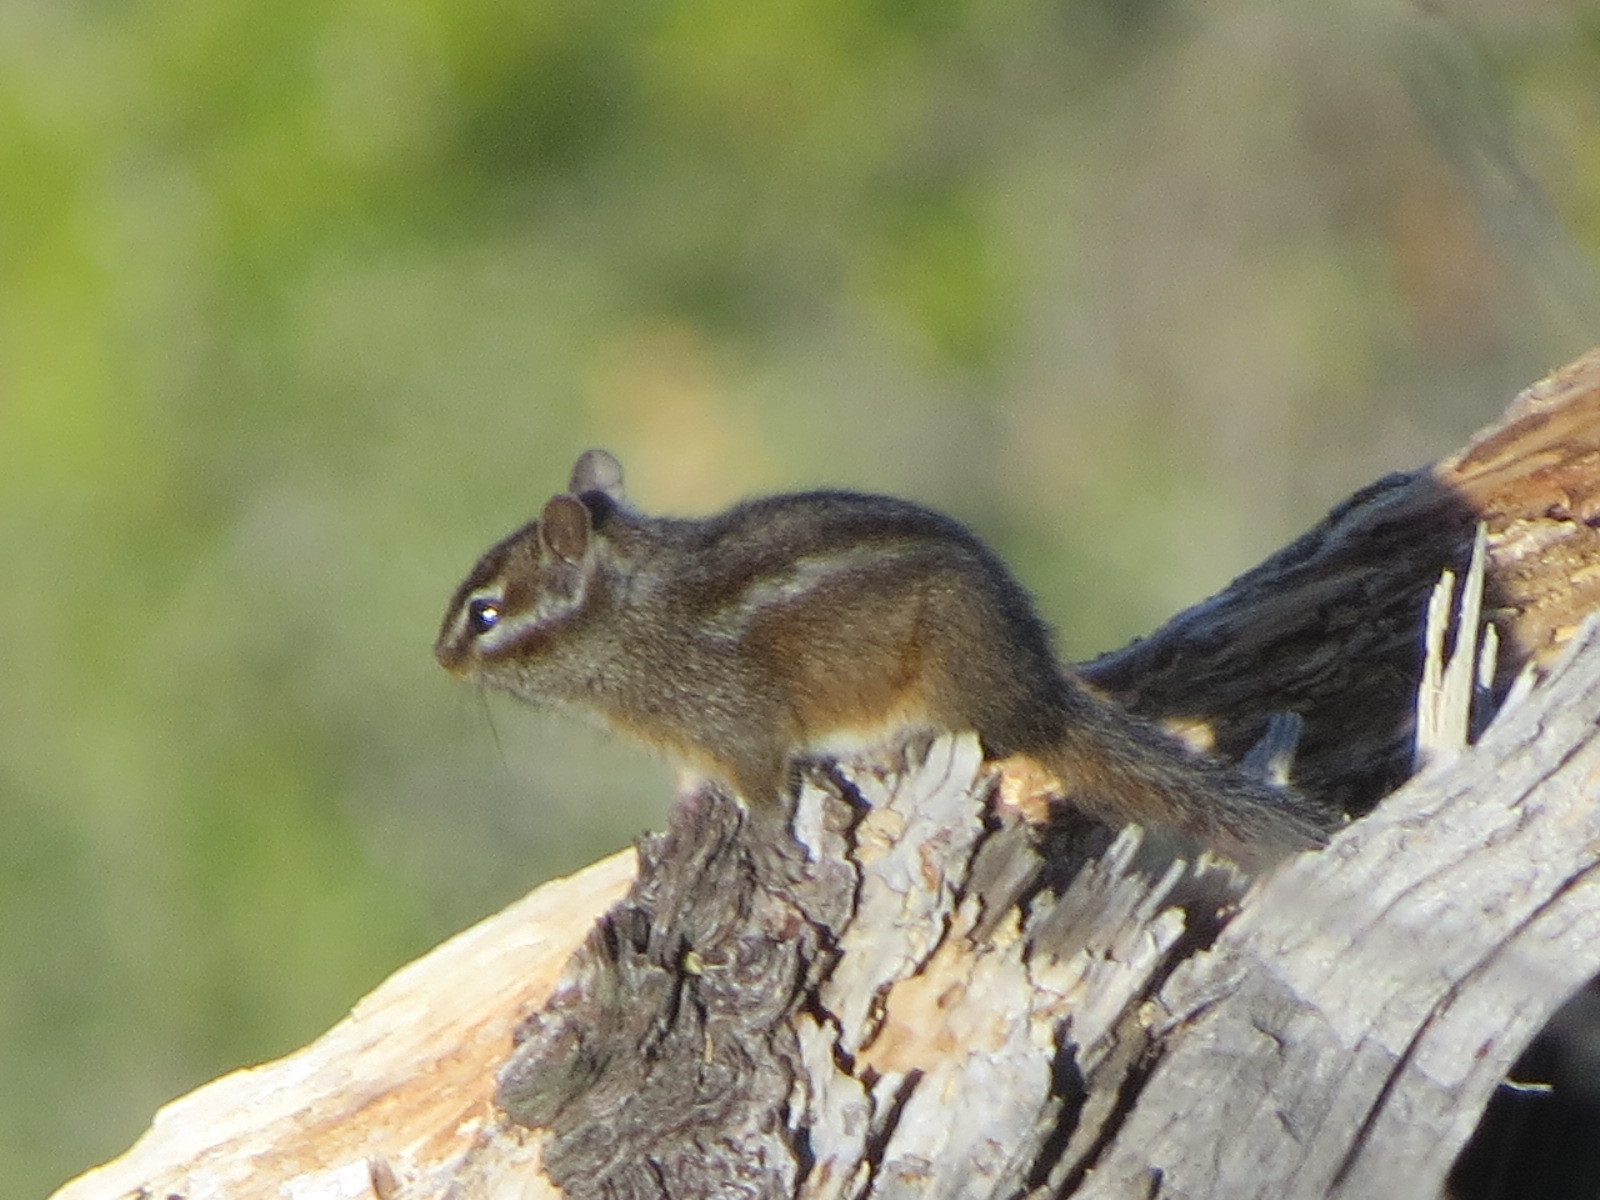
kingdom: Animalia
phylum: Chordata
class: Mammalia
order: Rodentia
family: Sciuridae
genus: Tamias
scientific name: Tamias merriami
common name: Merriam's chipmunk
